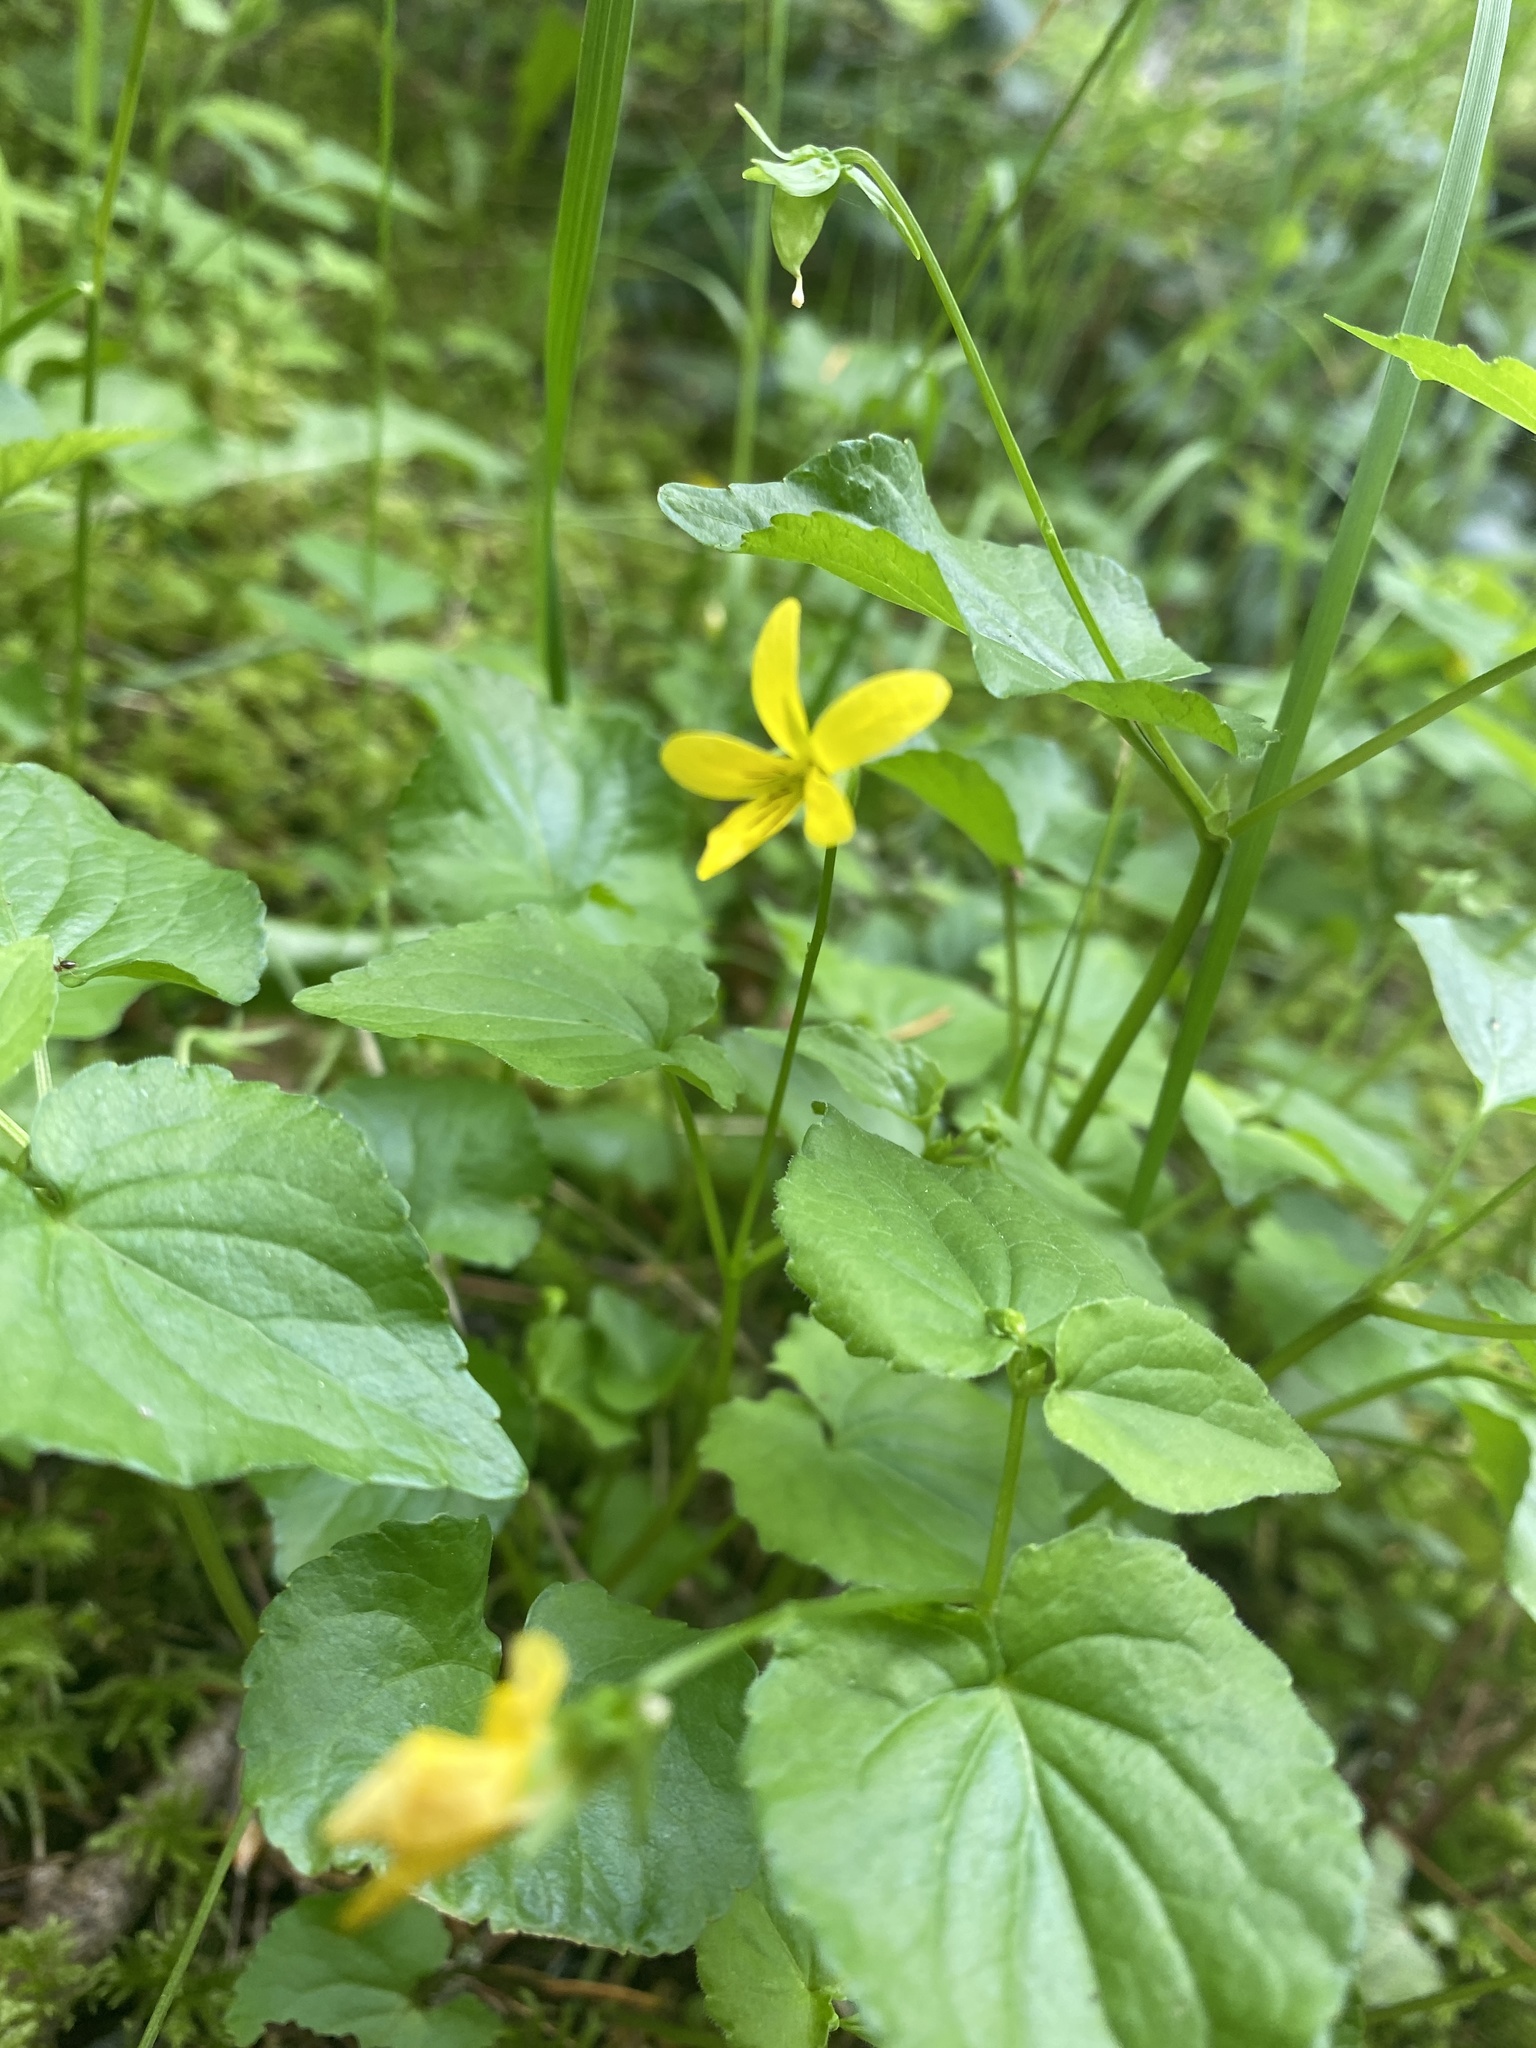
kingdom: Plantae
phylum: Tracheophyta
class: Magnoliopsida
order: Malpighiales
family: Violaceae
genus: Viola
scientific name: Viola glabella
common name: Stream violet
